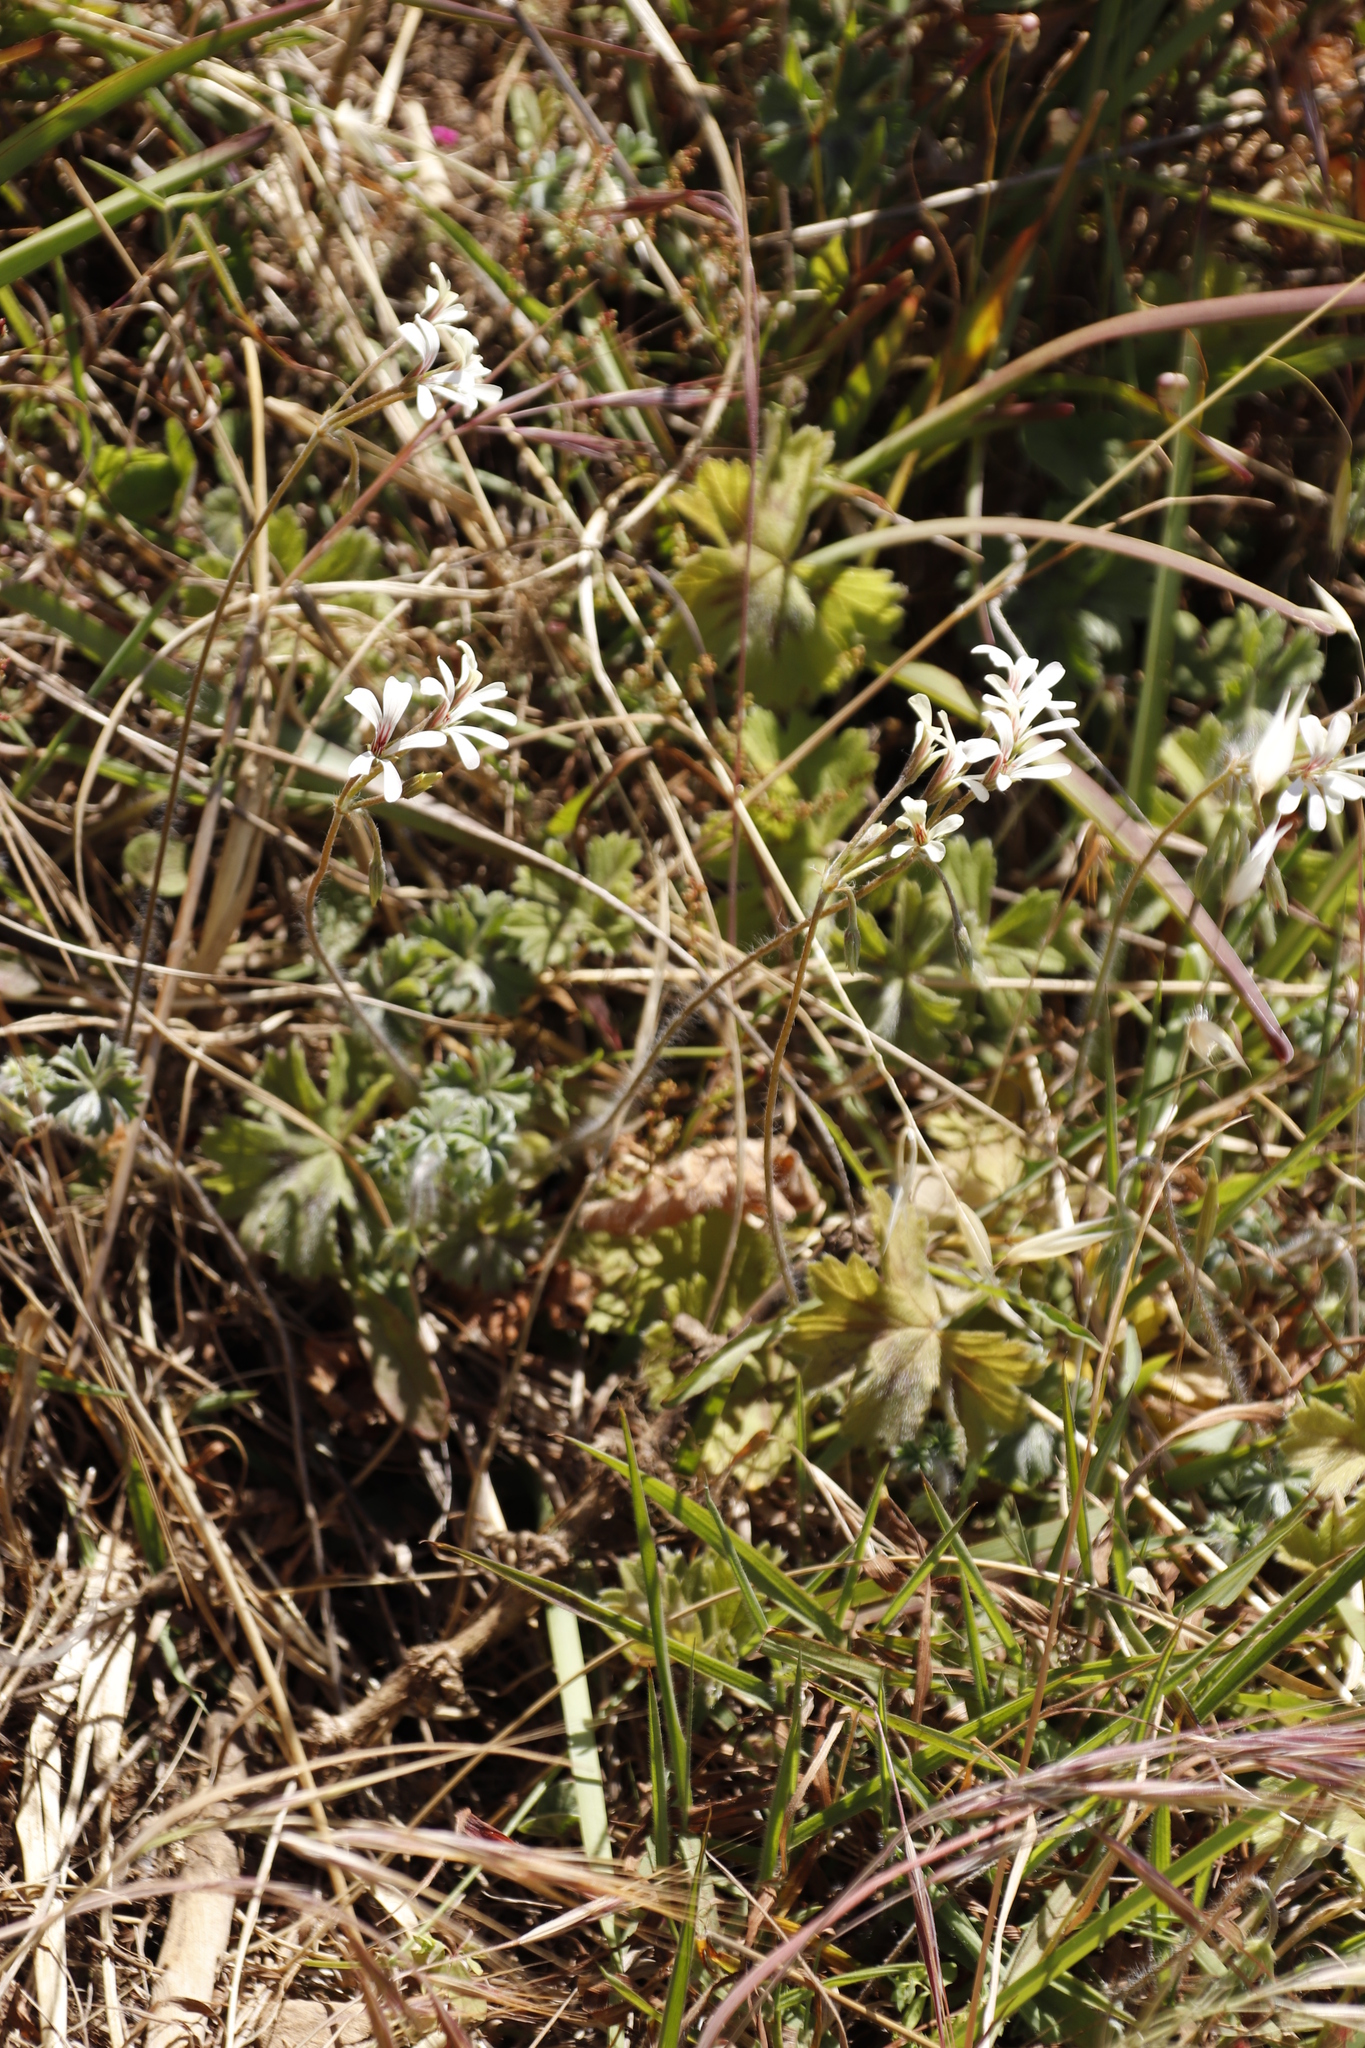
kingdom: Plantae
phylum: Tracheophyta
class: Magnoliopsida
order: Geraniales
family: Geraniaceae
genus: Pelargonium
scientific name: Pelargonium alchemilloides
